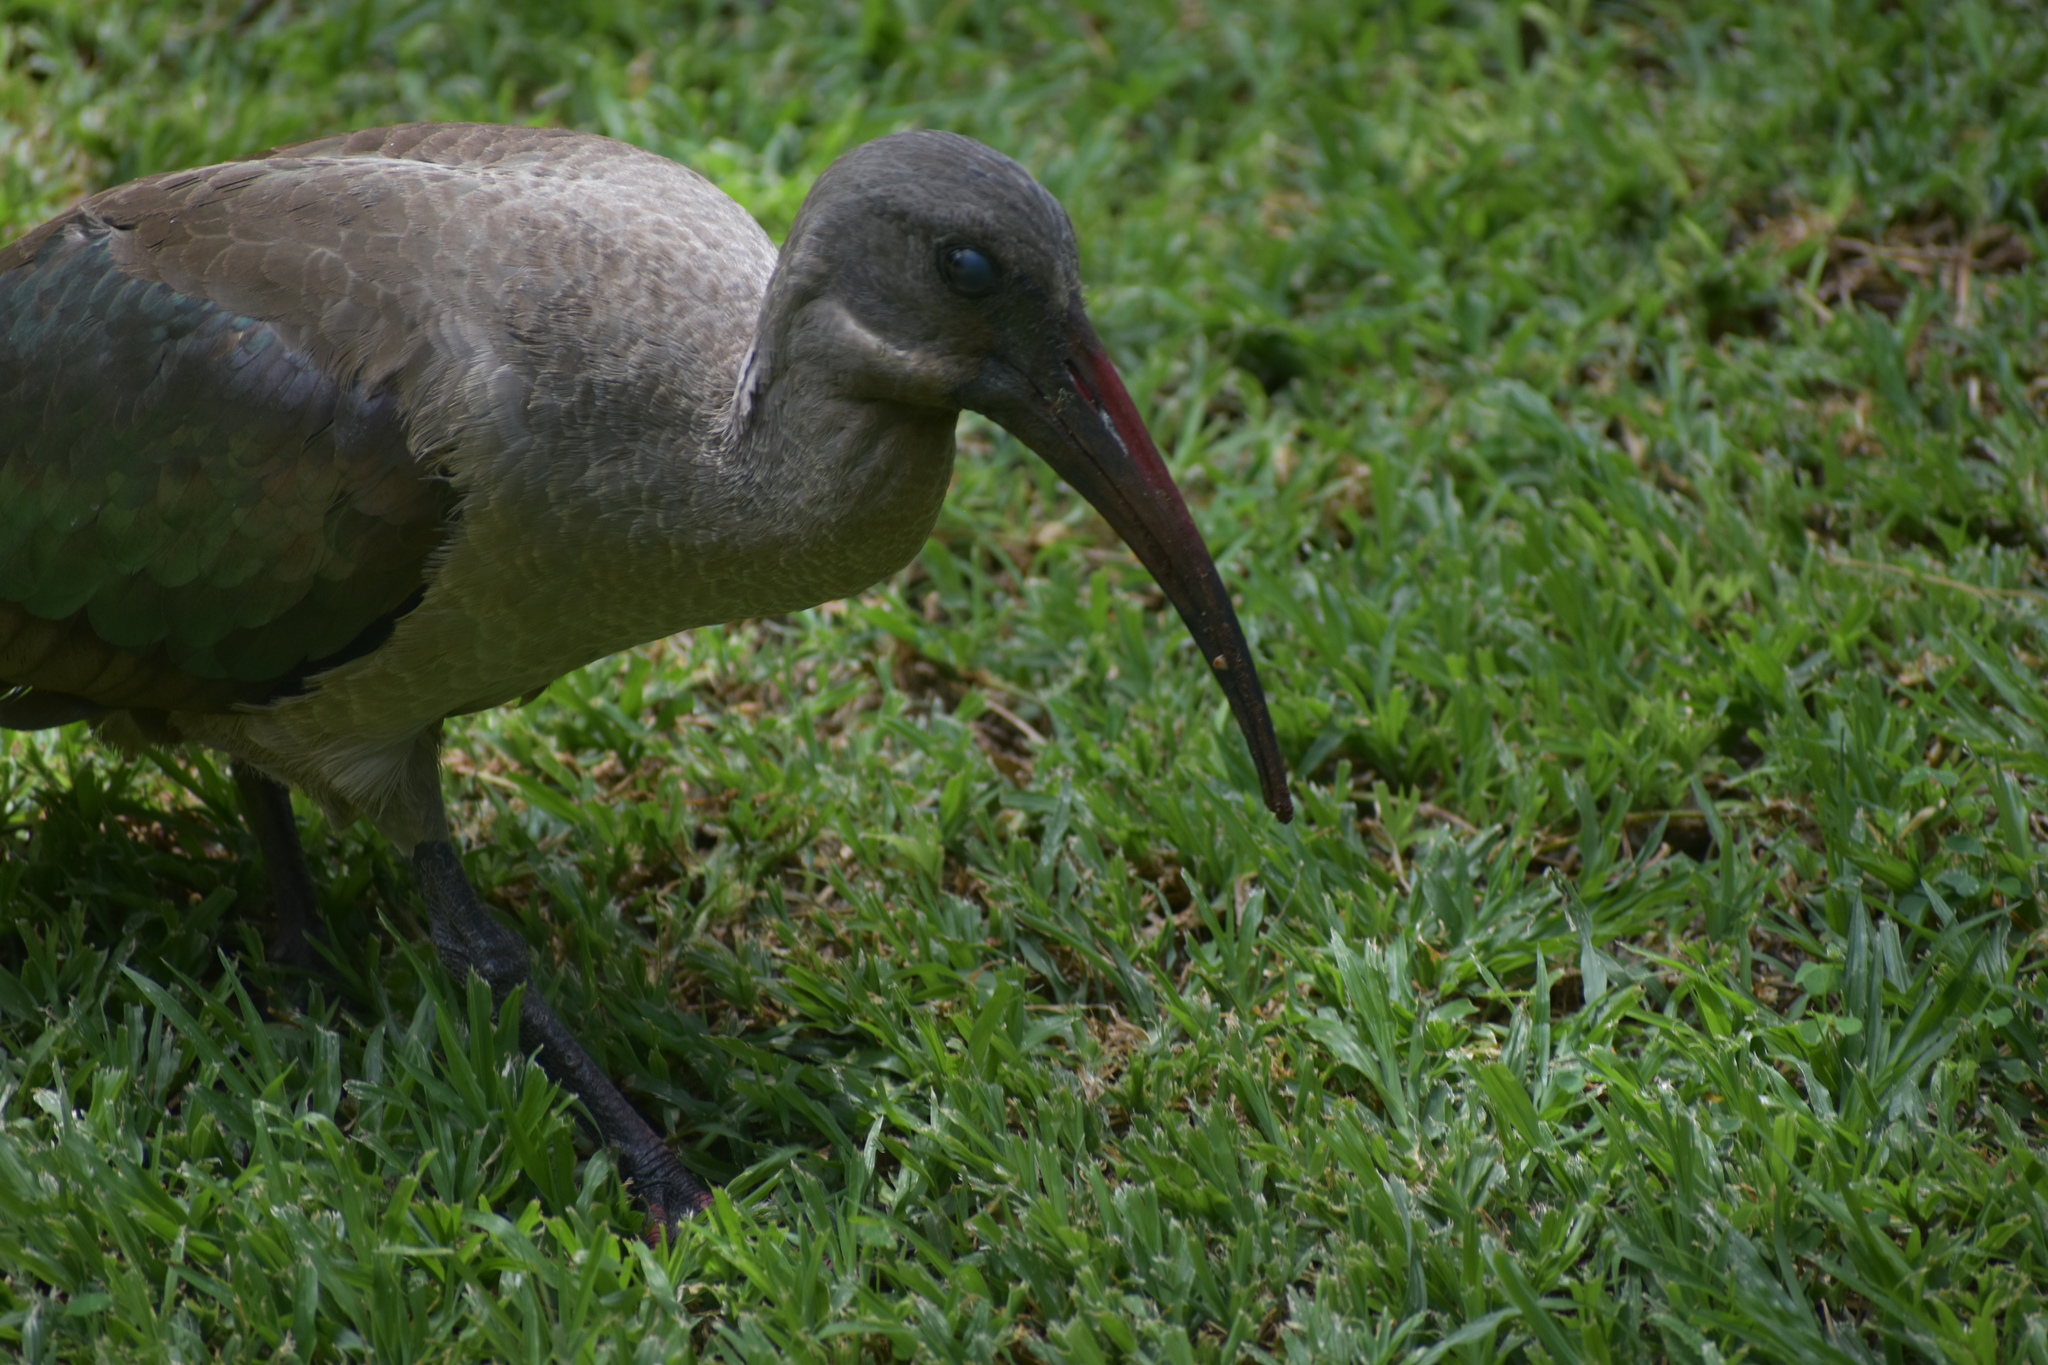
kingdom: Animalia
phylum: Chordata
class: Aves
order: Pelecaniformes
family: Threskiornithidae
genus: Bostrychia
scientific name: Bostrychia hagedash
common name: Hadada ibis
